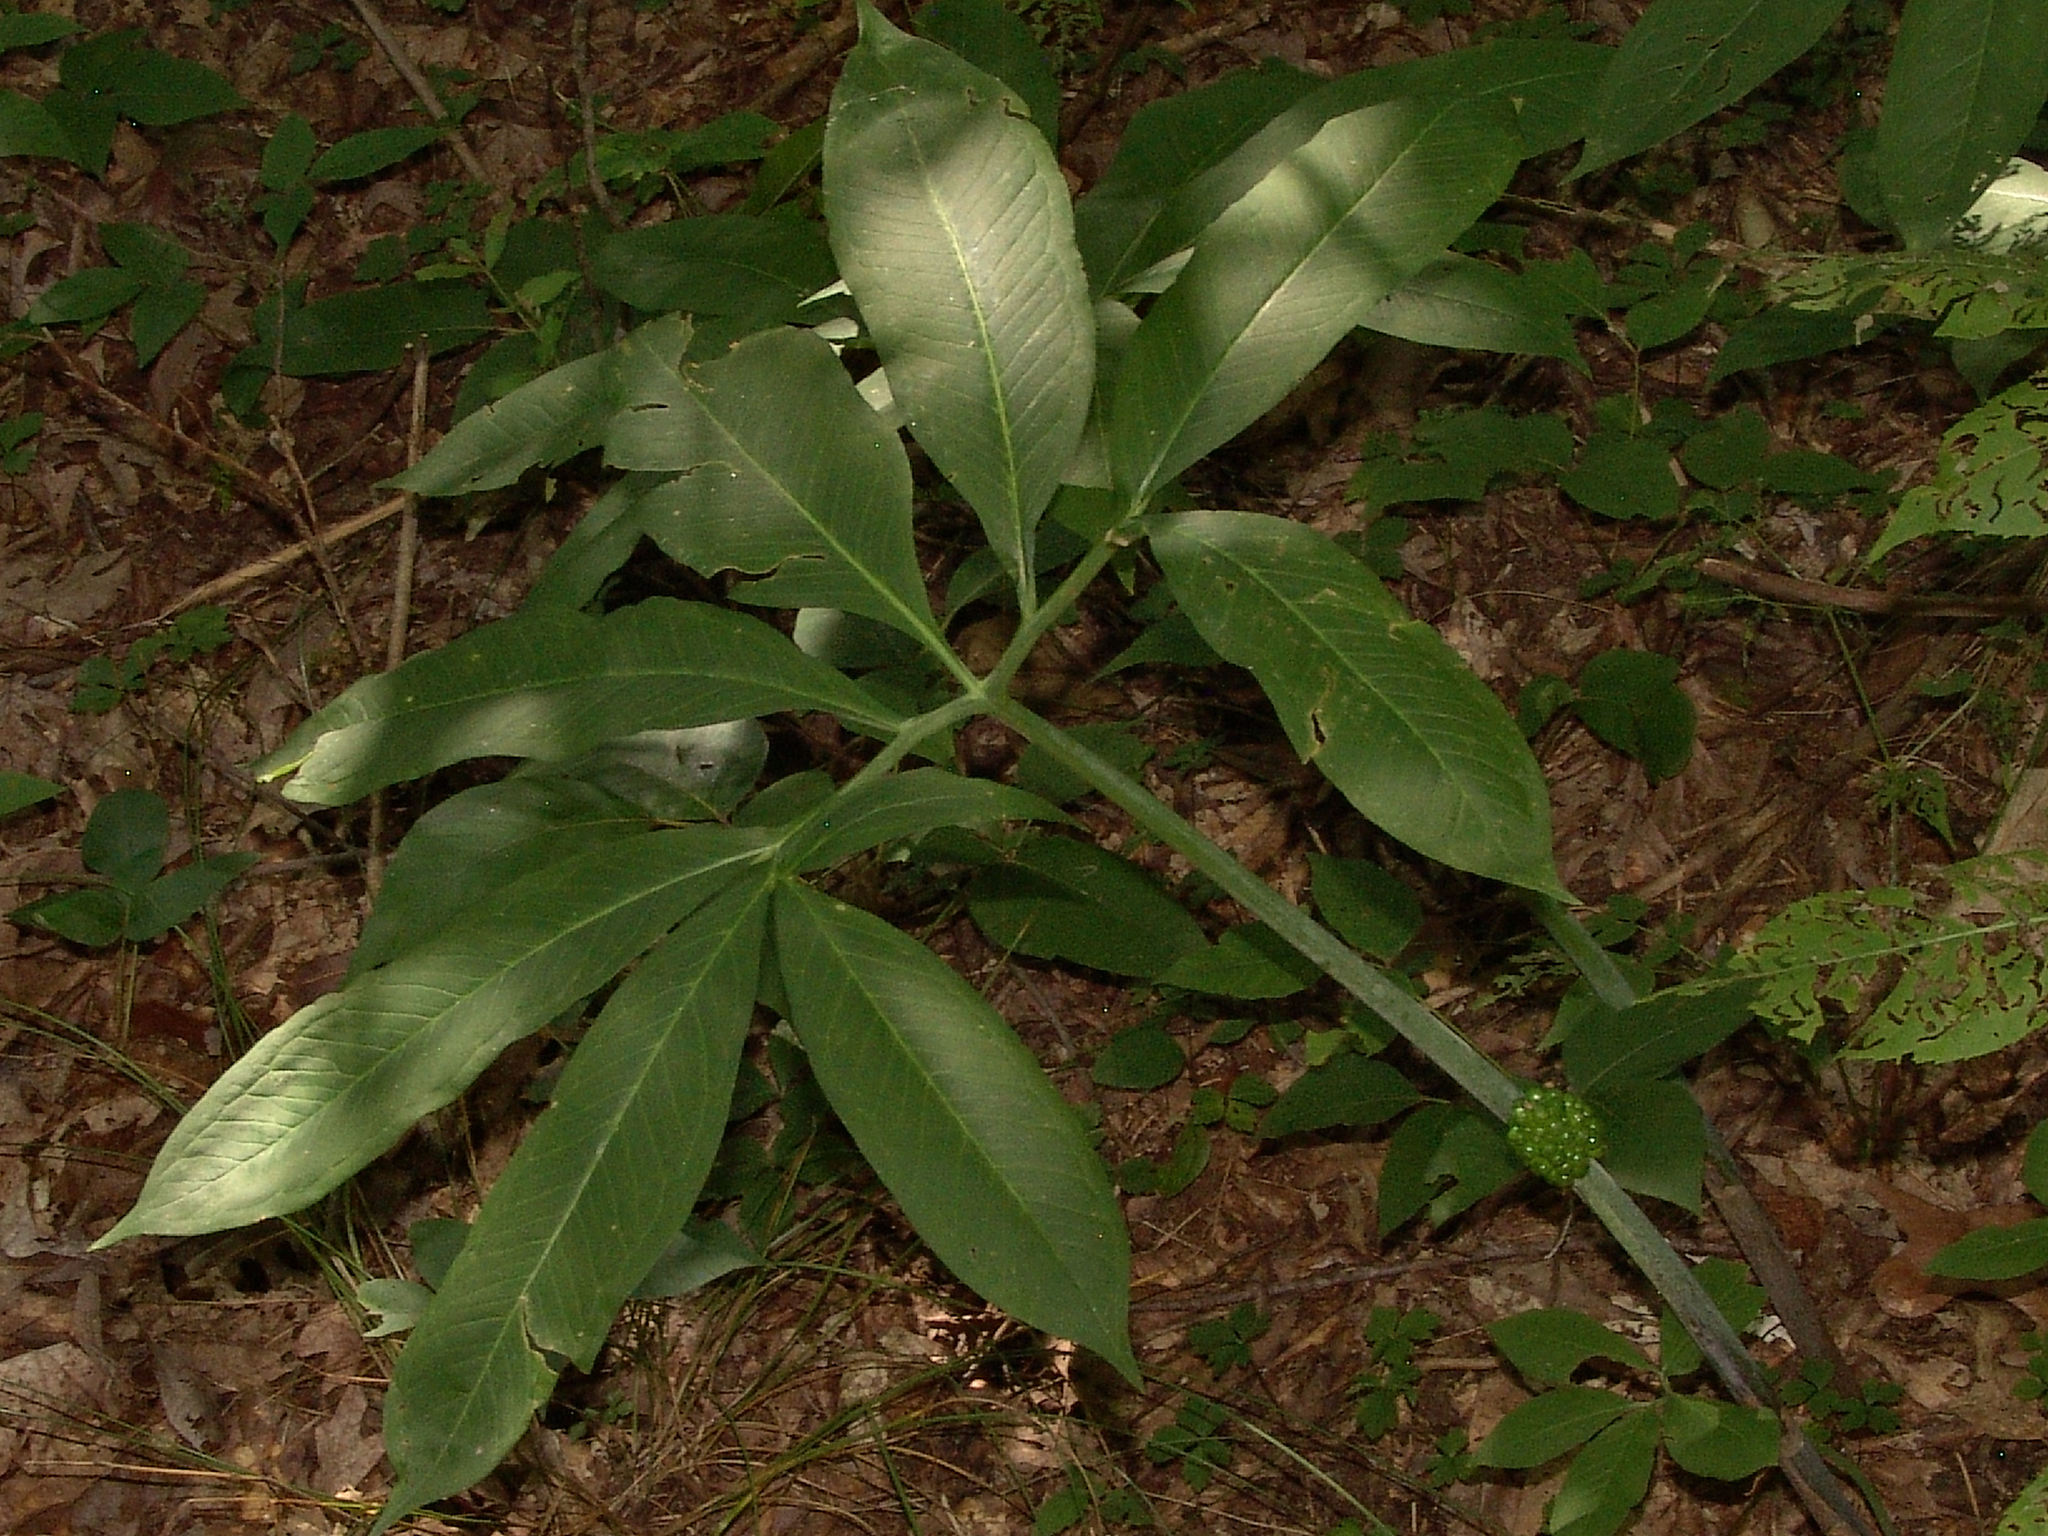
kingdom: Plantae
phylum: Tracheophyta
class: Liliopsida
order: Alismatales
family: Araceae
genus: Arisaema
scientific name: Arisaema dracontium
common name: Dragon-arum
